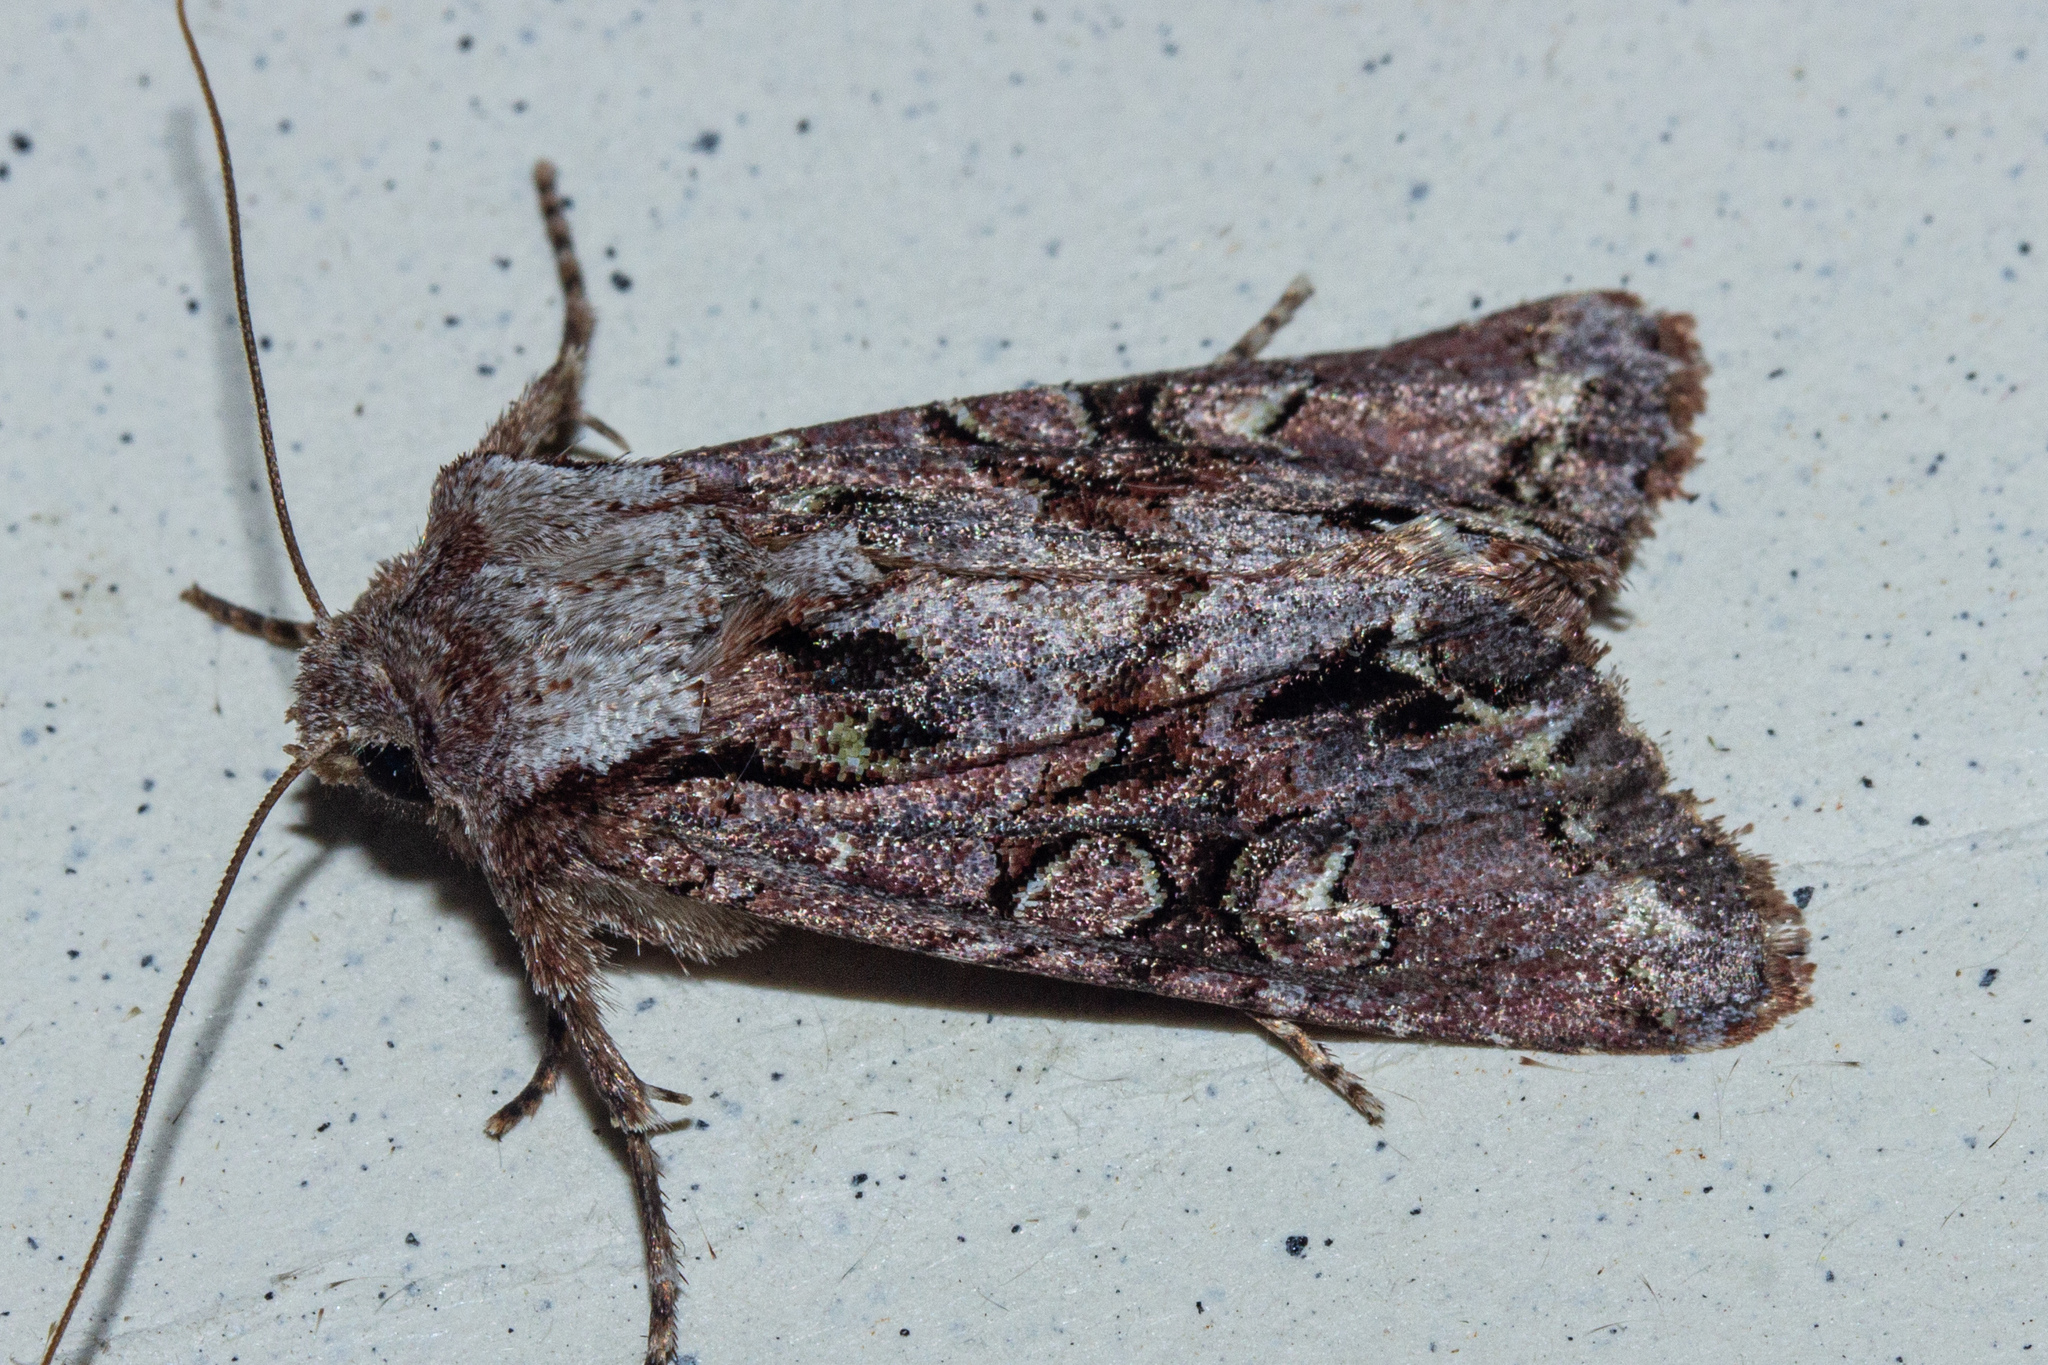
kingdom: Animalia
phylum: Arthropoda
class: Insecta
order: Lepidoptera
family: Noctuidae
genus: Ichneutica
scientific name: Ichneutica skelloni
